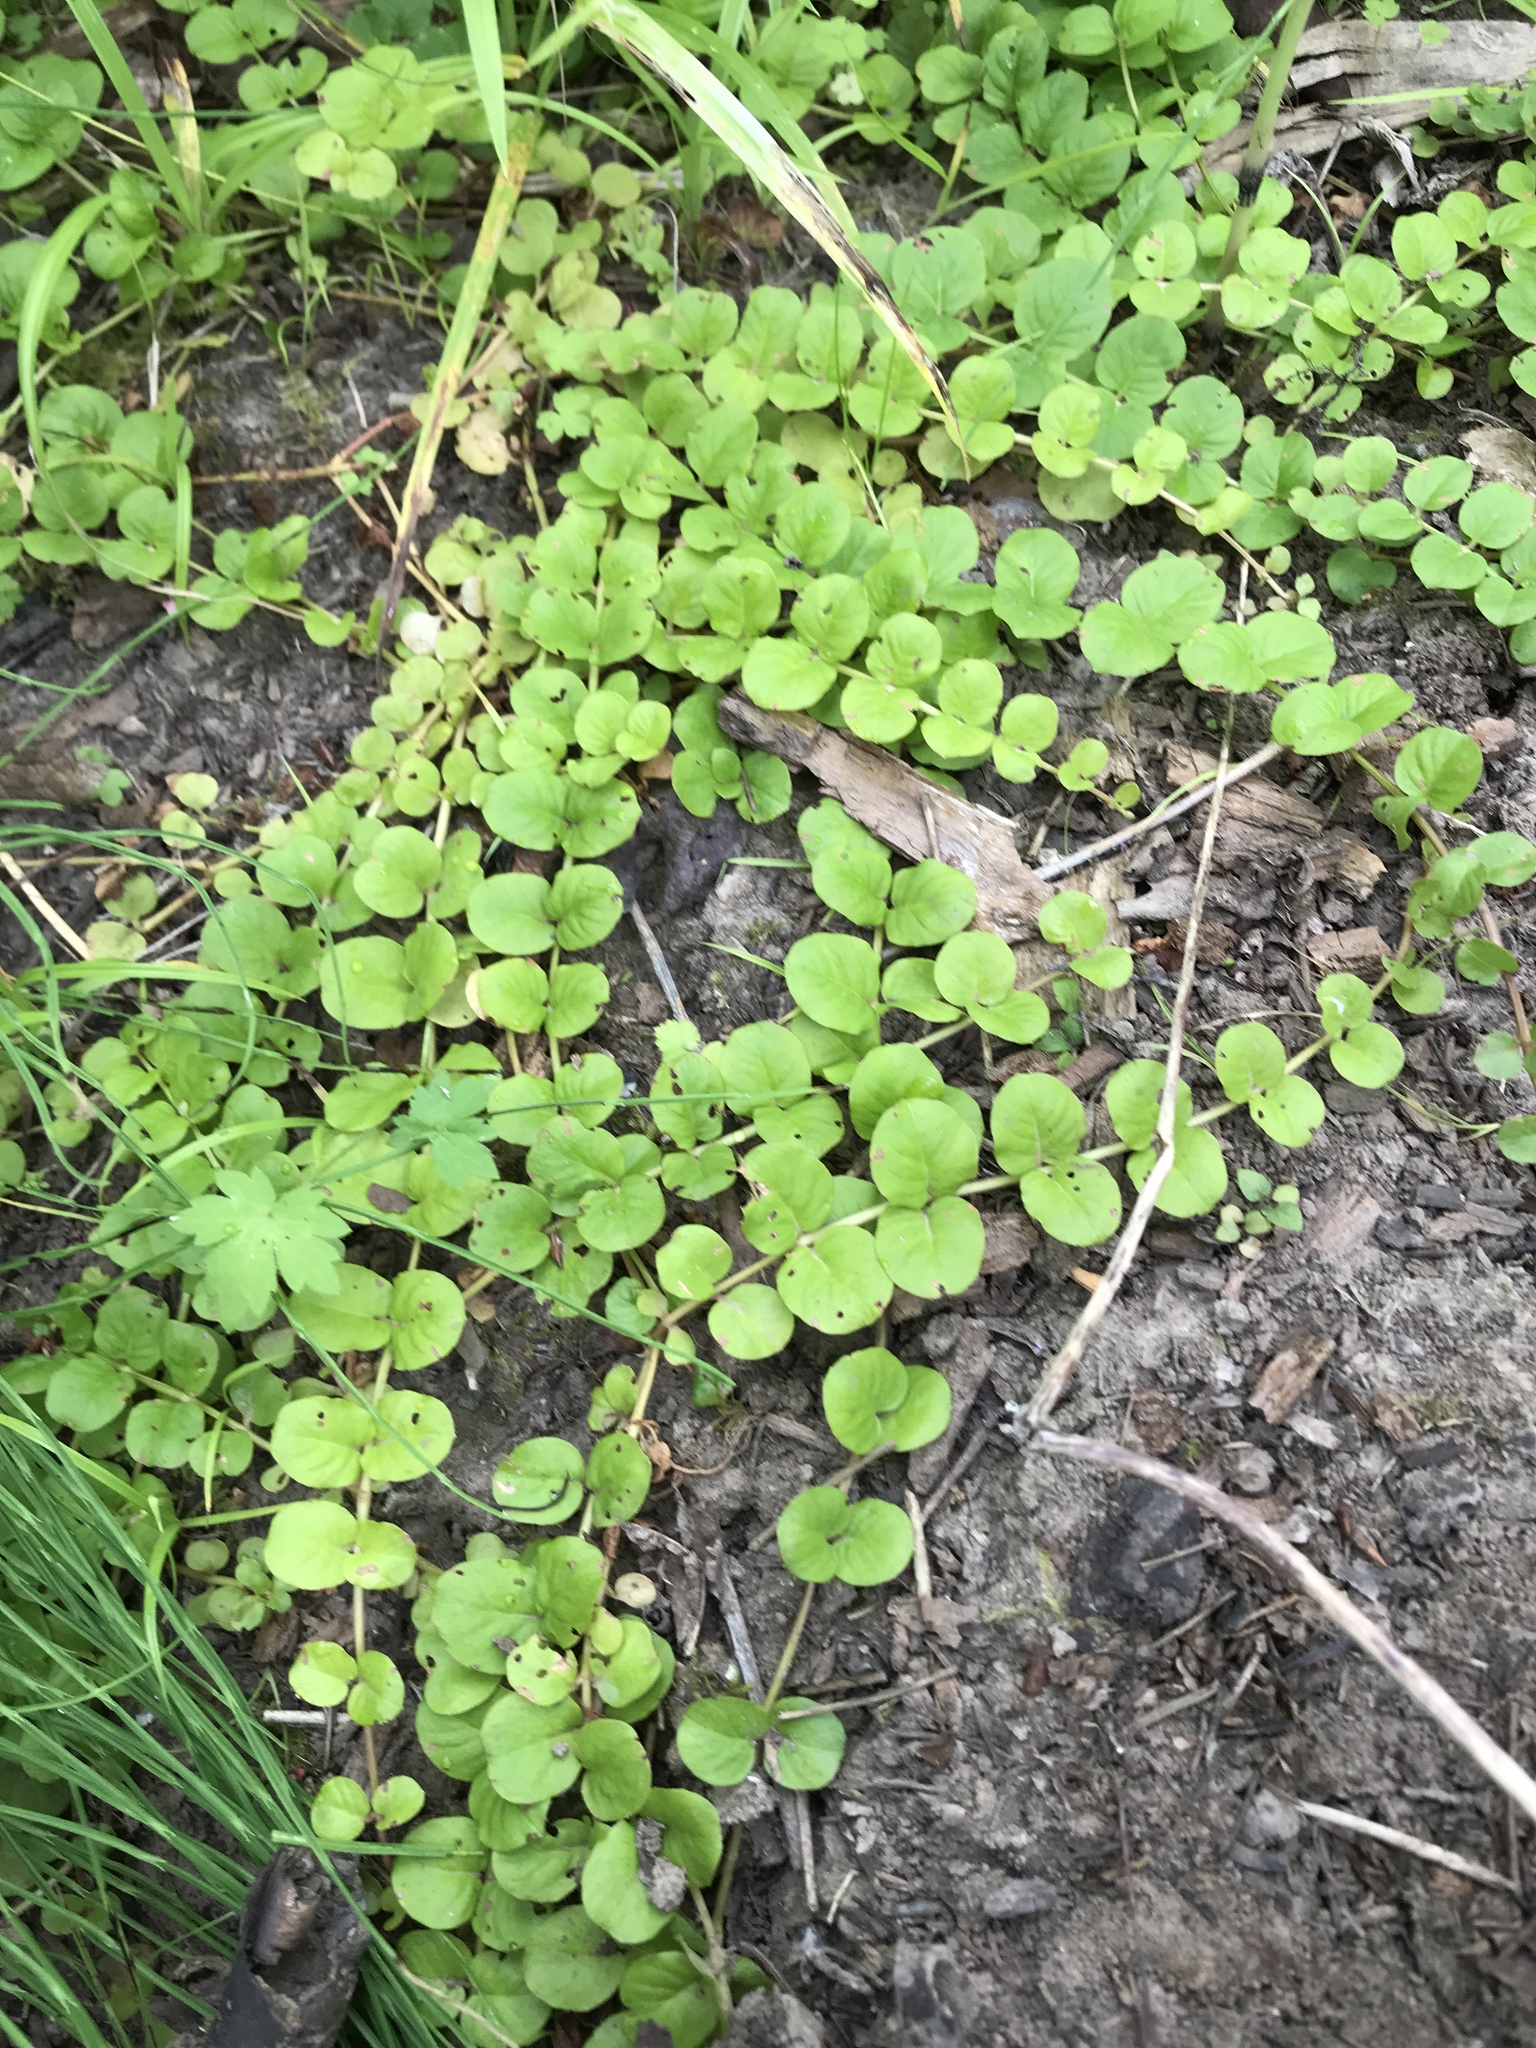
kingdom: Plantae
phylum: Tracheophyta
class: Magnoliopsida
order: Ericales
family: Primulaceae
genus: Lysimachia
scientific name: Lysimachia nummularia
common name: Moneywort
